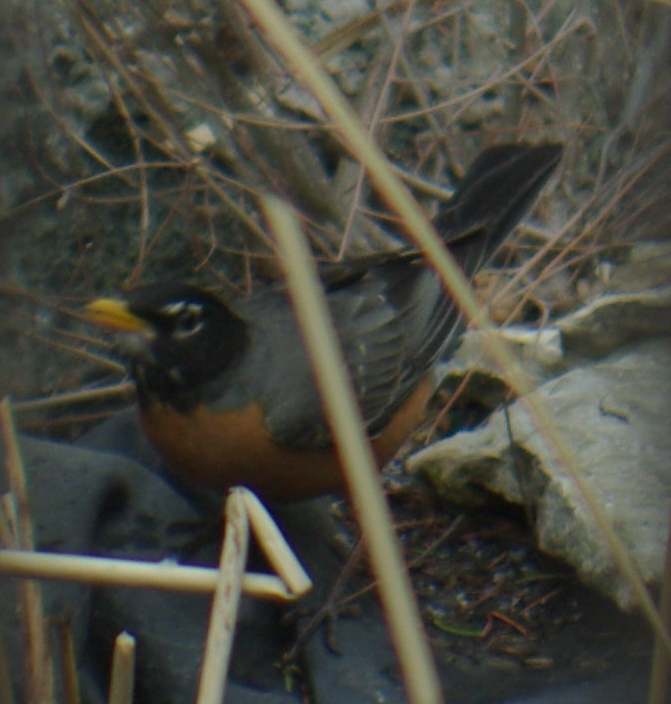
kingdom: Animalia
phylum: Chordata
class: Aves
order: Passeriformes
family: Turdidae
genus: Turdus
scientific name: Turdus migratorius
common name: American robin
